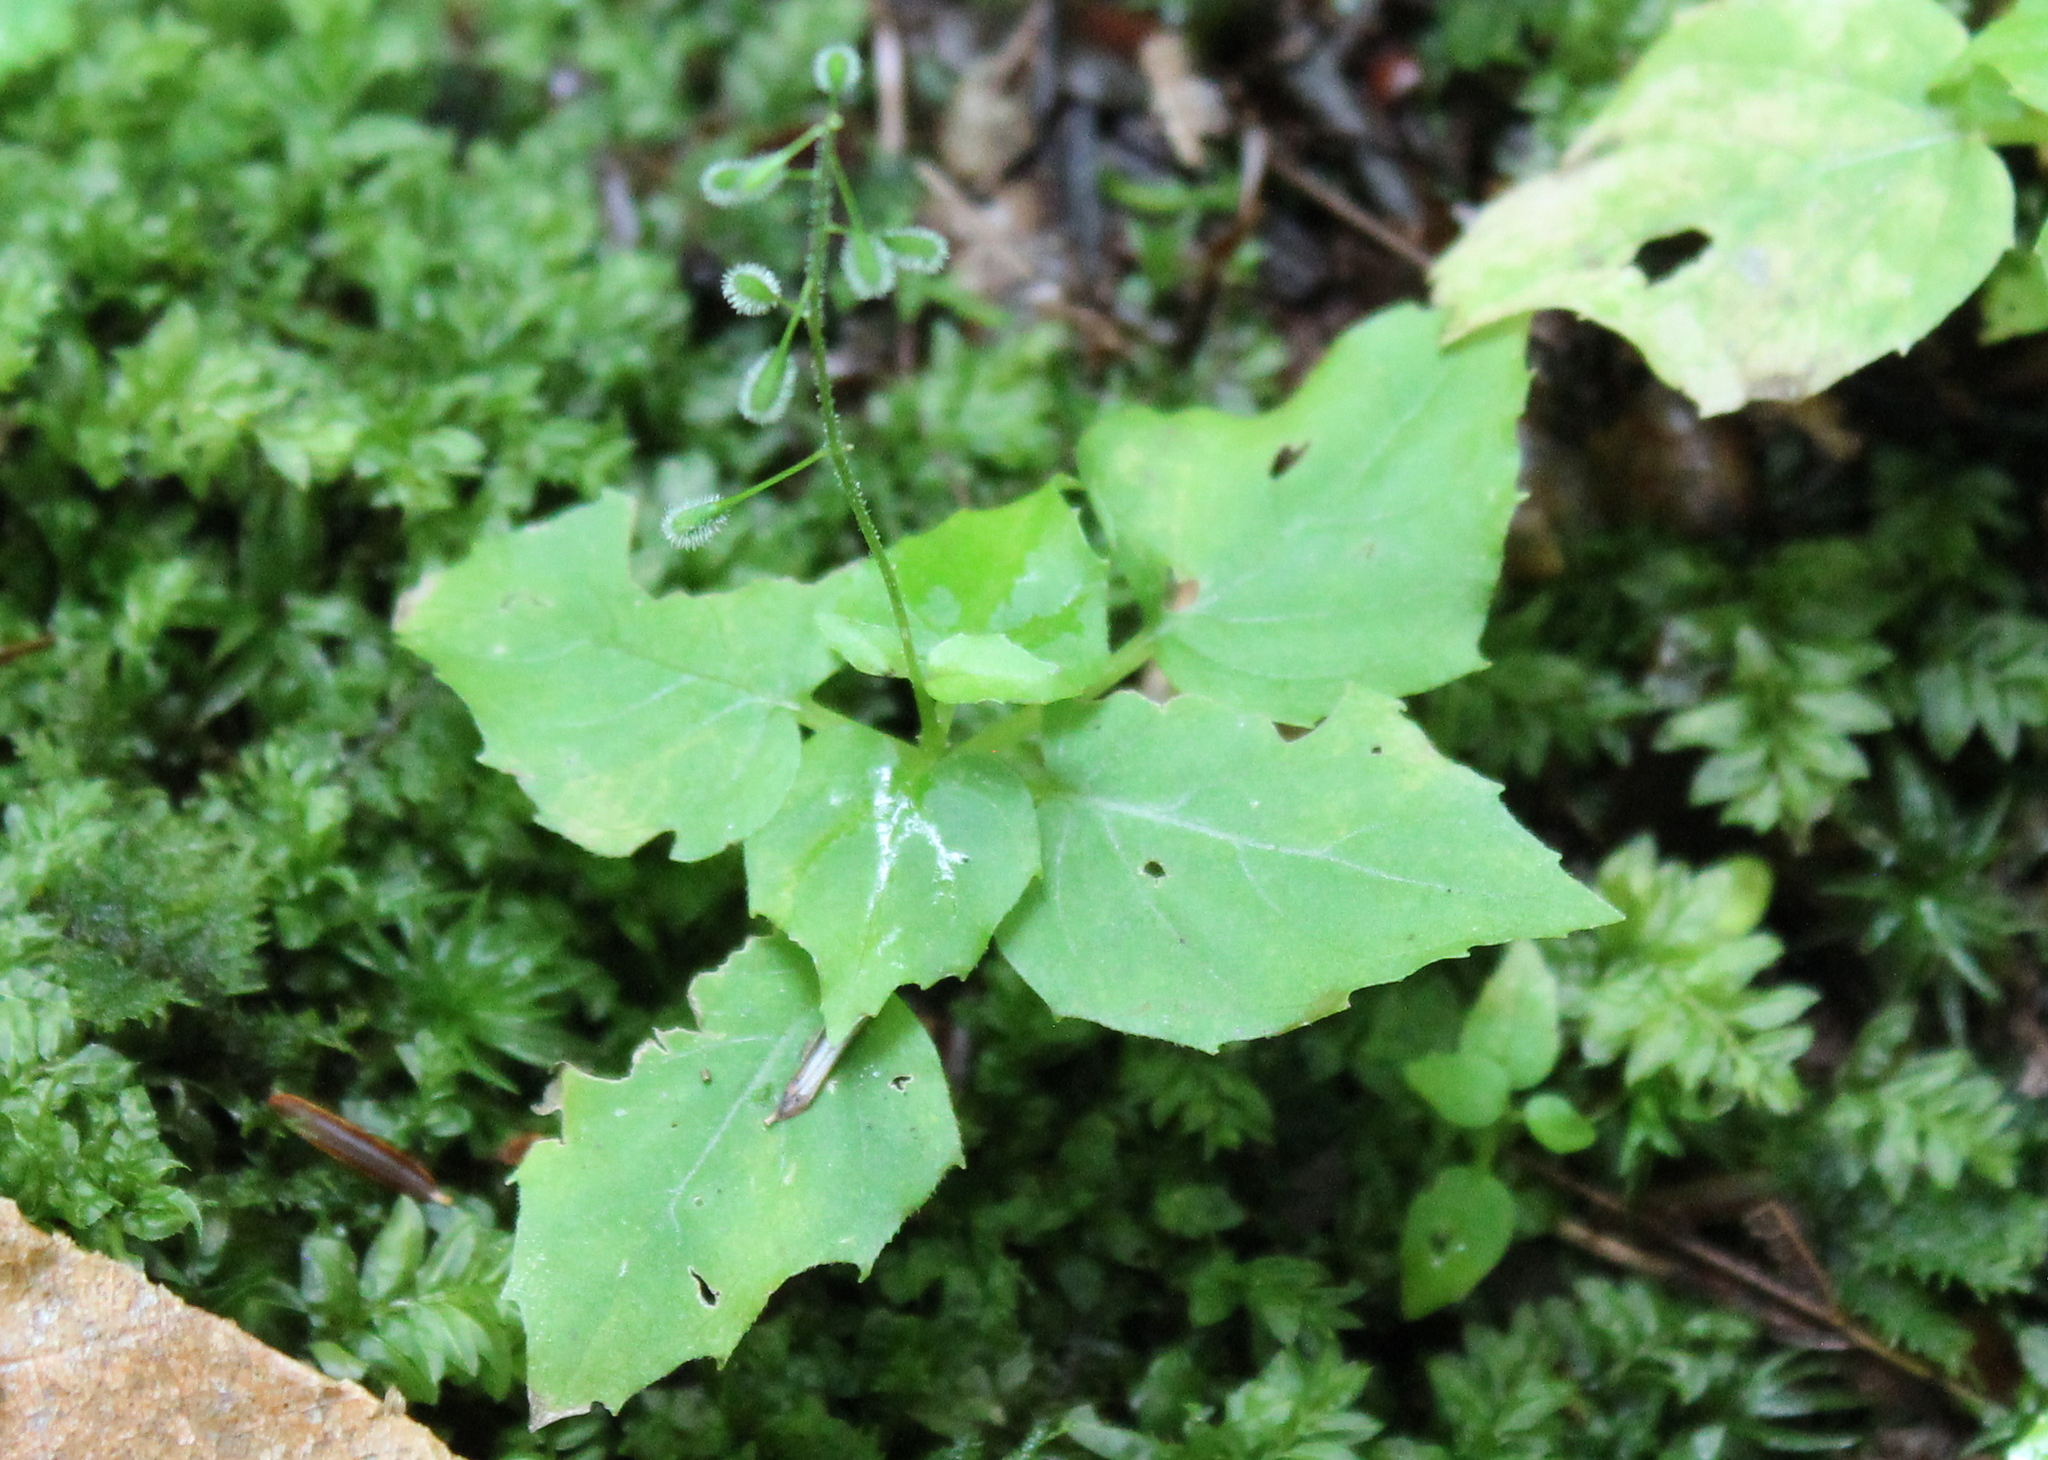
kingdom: Plantae
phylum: Tracheophyta
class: Magnoliopsida
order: Myrtales
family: Onagraceae
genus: Circaea
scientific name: Circaea canadensis
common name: Broad-leaved enchanter's nightshade
